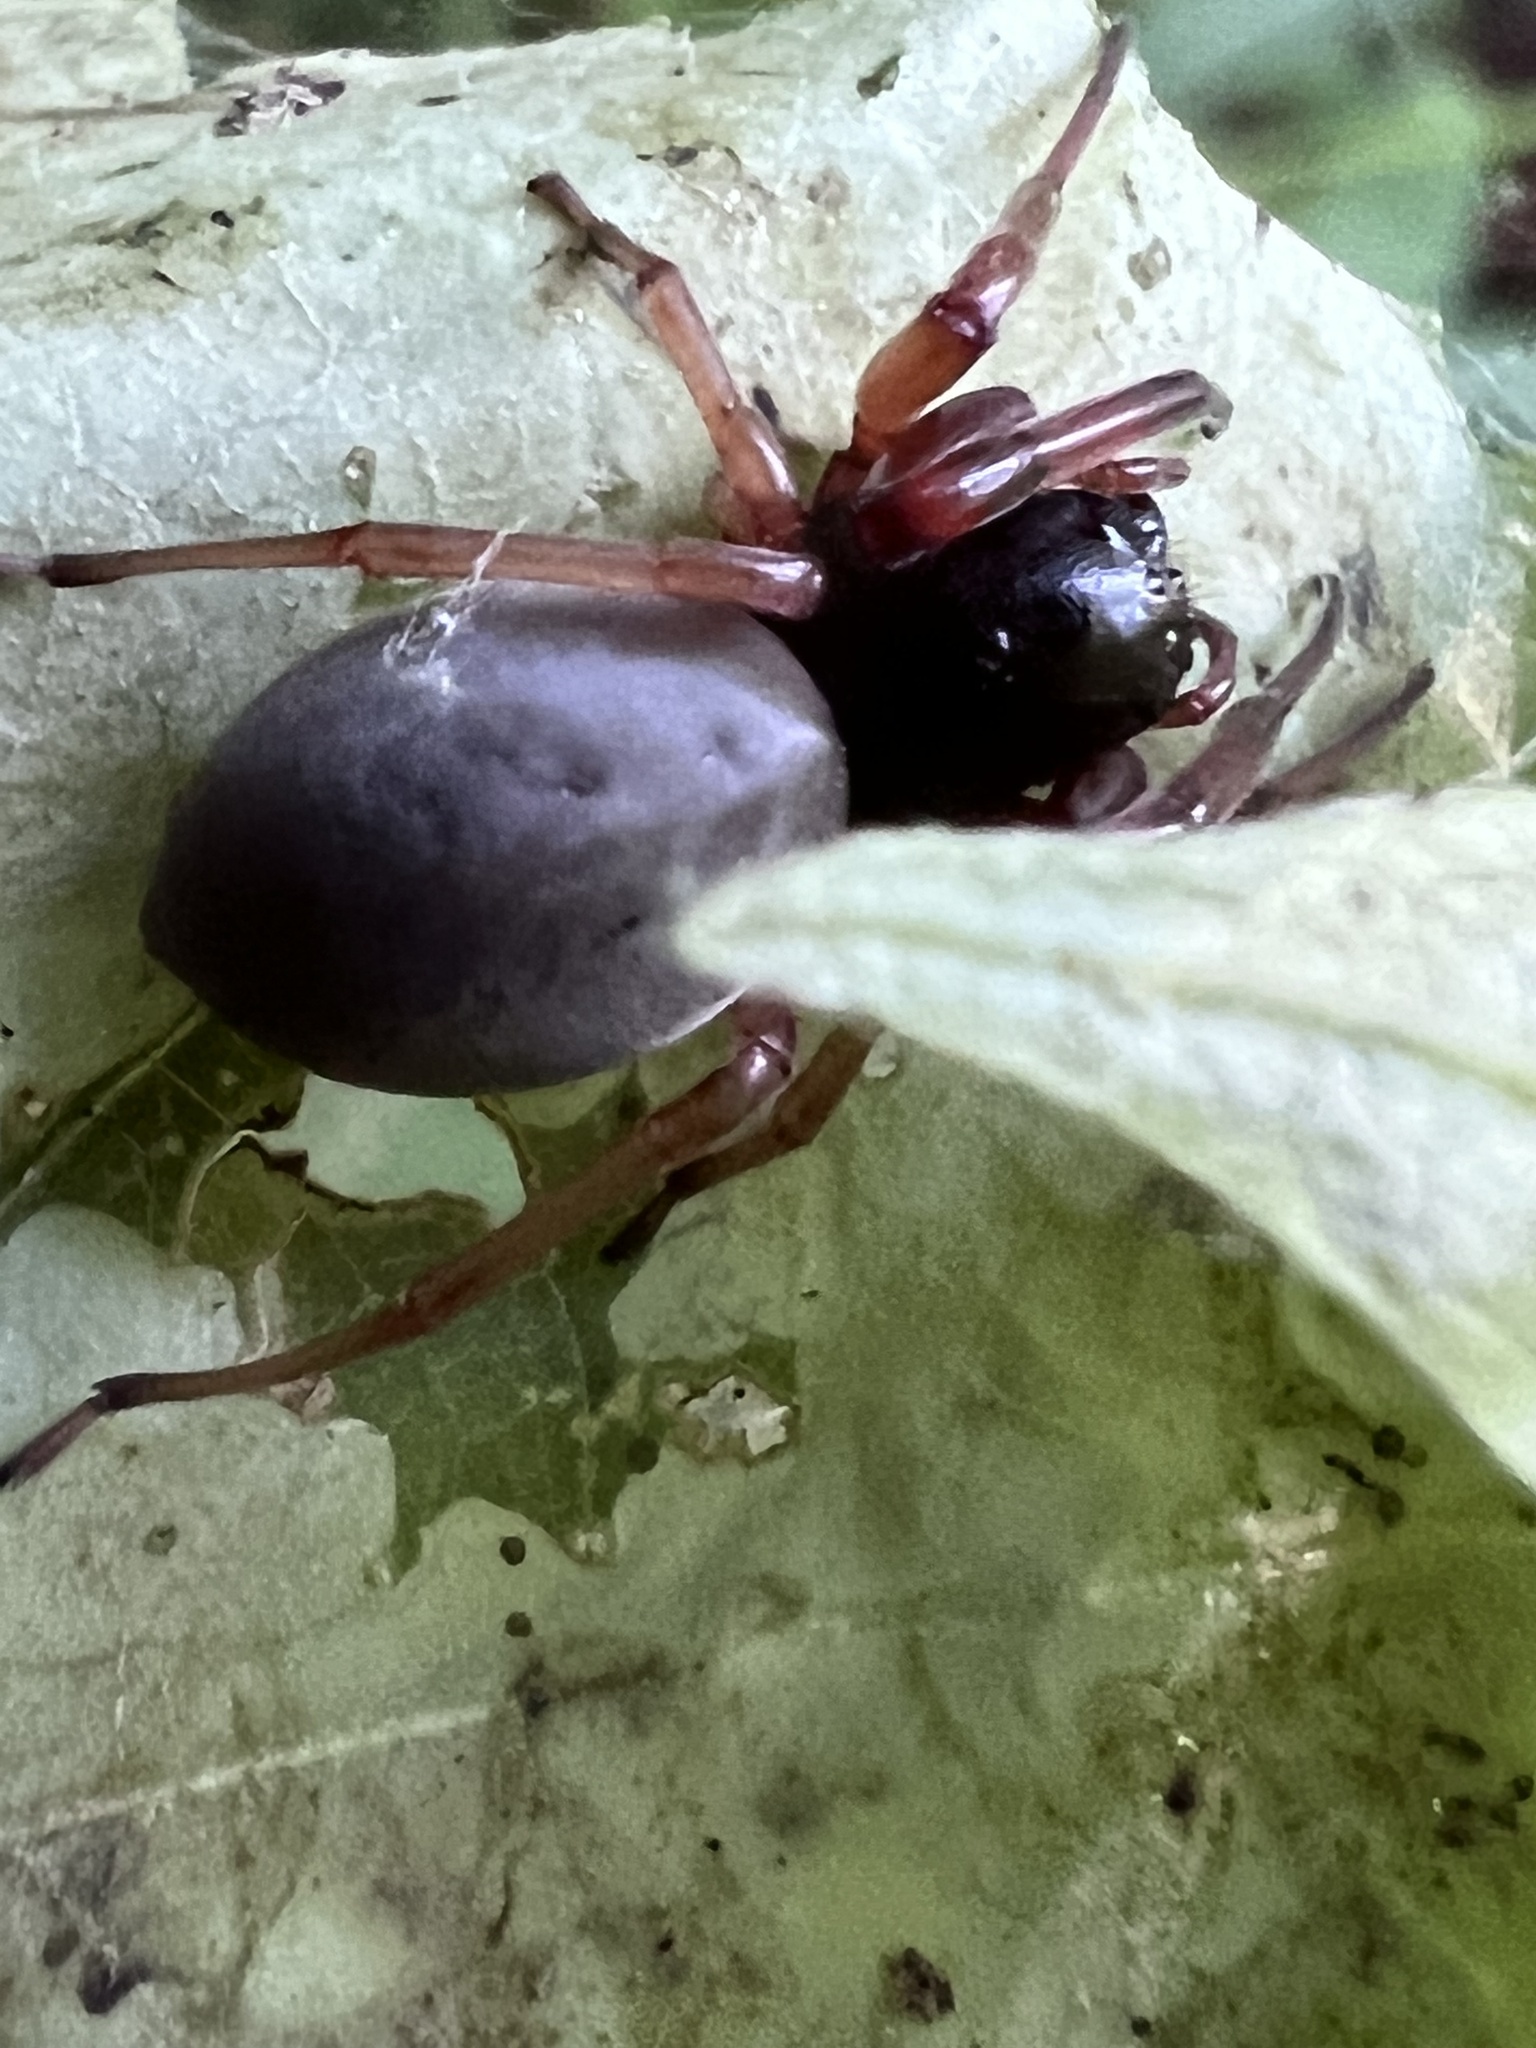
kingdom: Animalia
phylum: Arthropoda
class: Arachnida
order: Araneae
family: Trachelidae
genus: Trachelas
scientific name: Trachelas tranquillus
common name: Broad-faced sac spider
